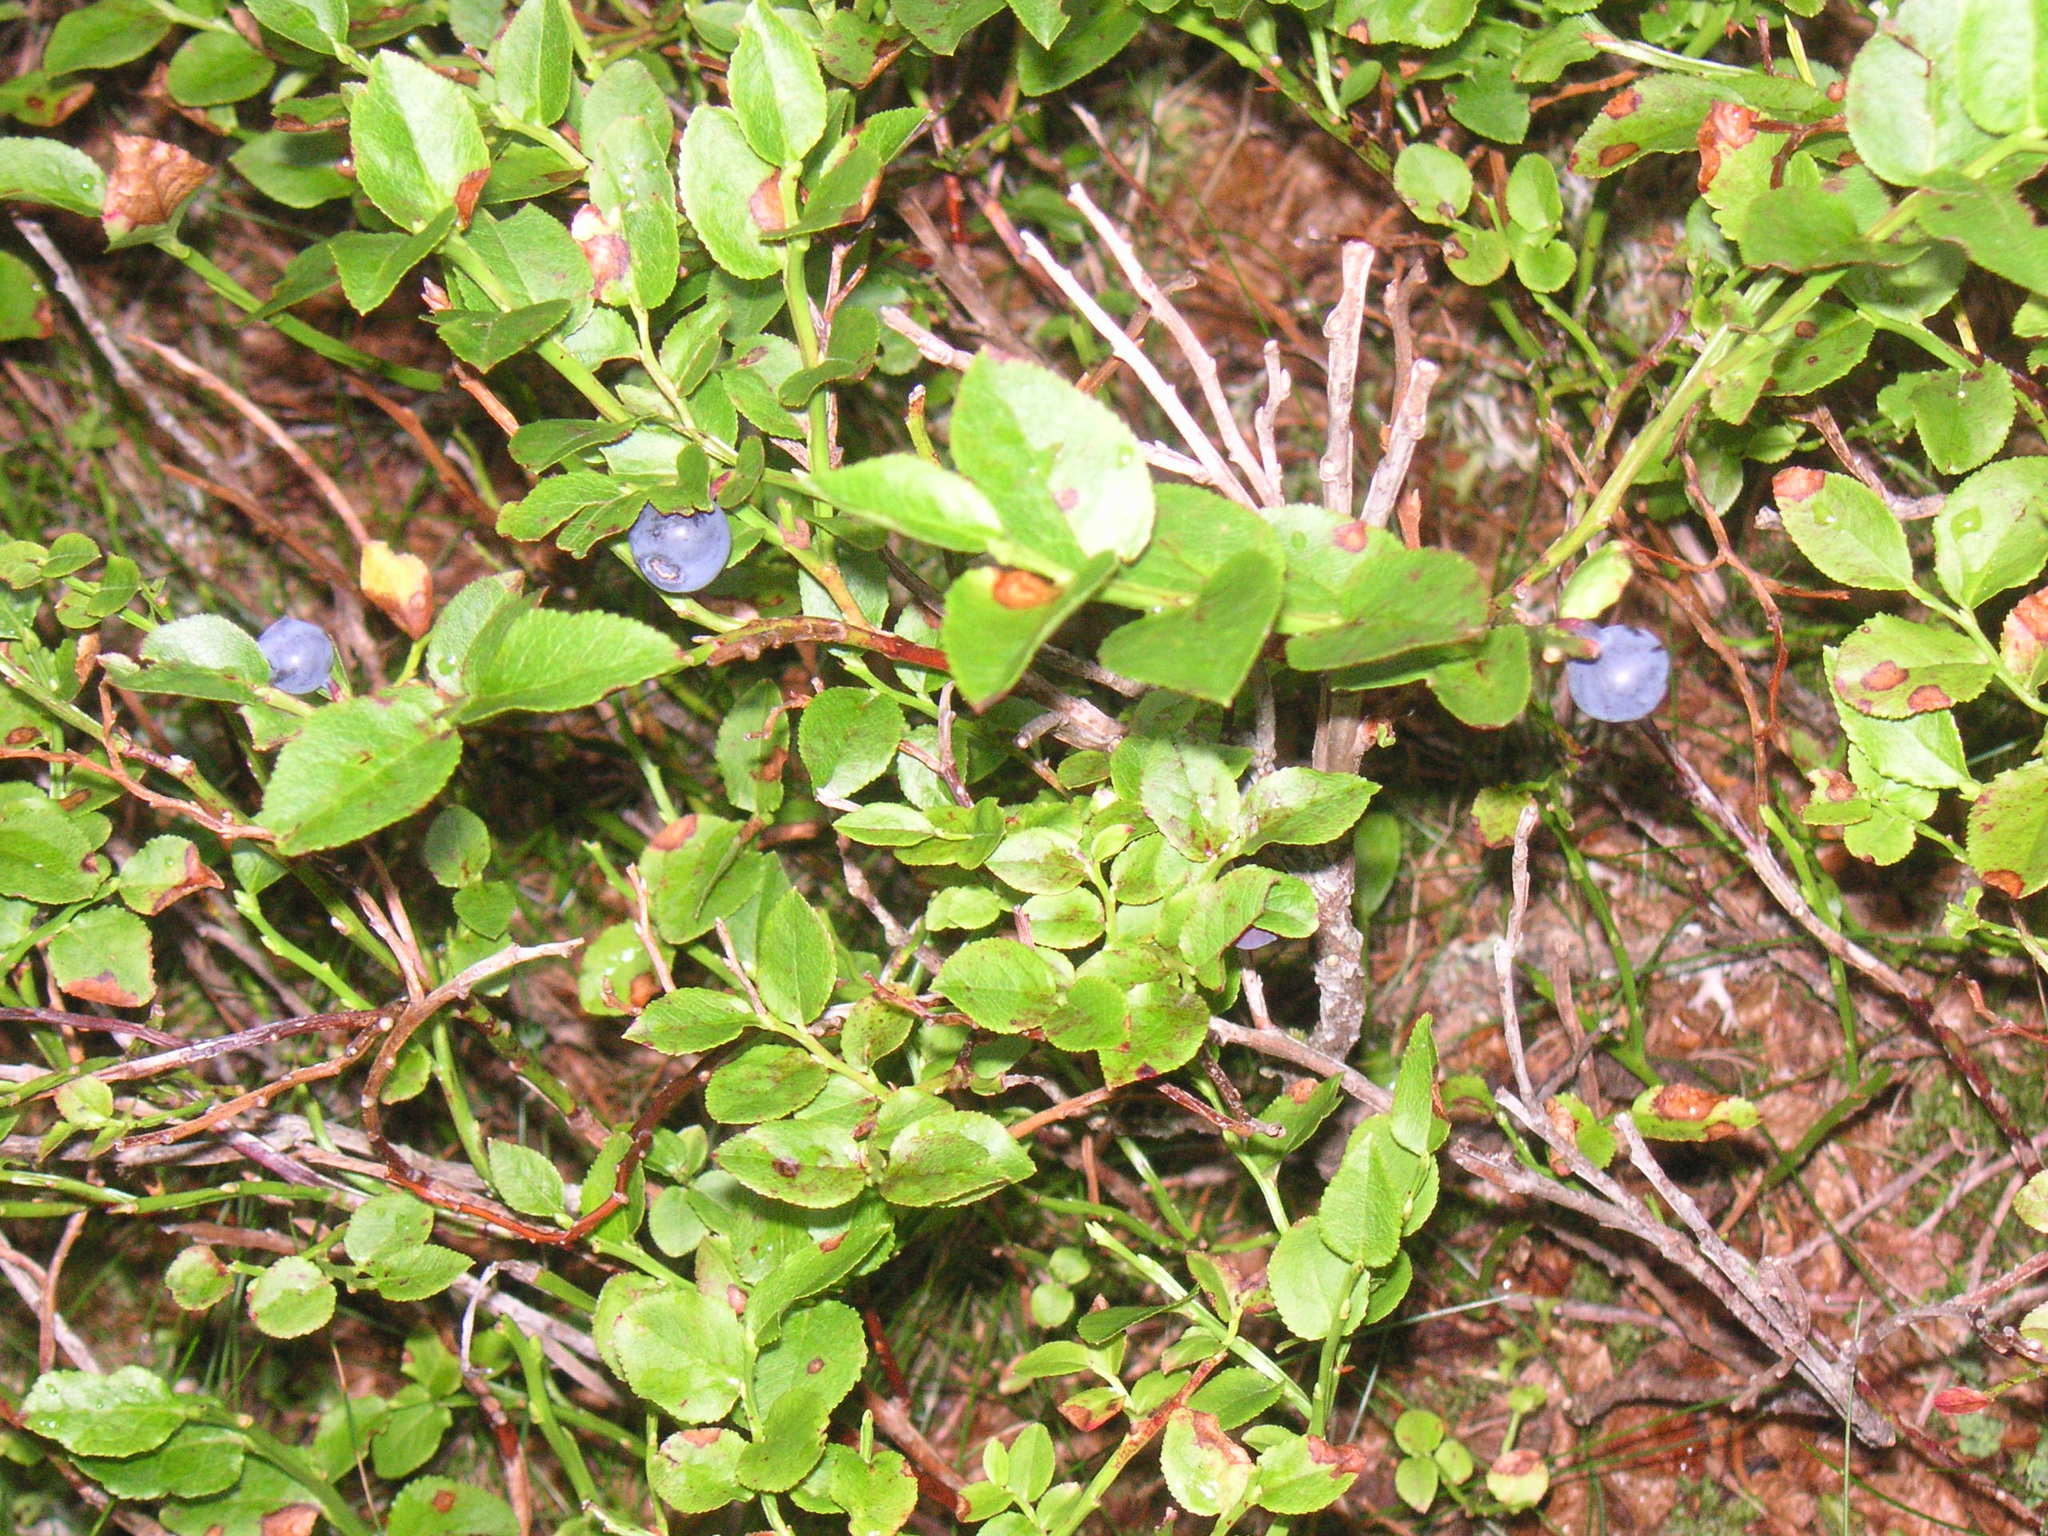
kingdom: Plantae
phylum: Tracheophyta
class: Magnoliopsida
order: Ericales
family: Ericaceae
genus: Vaccinium
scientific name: Vaccinium myrtillus
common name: Bilberry
